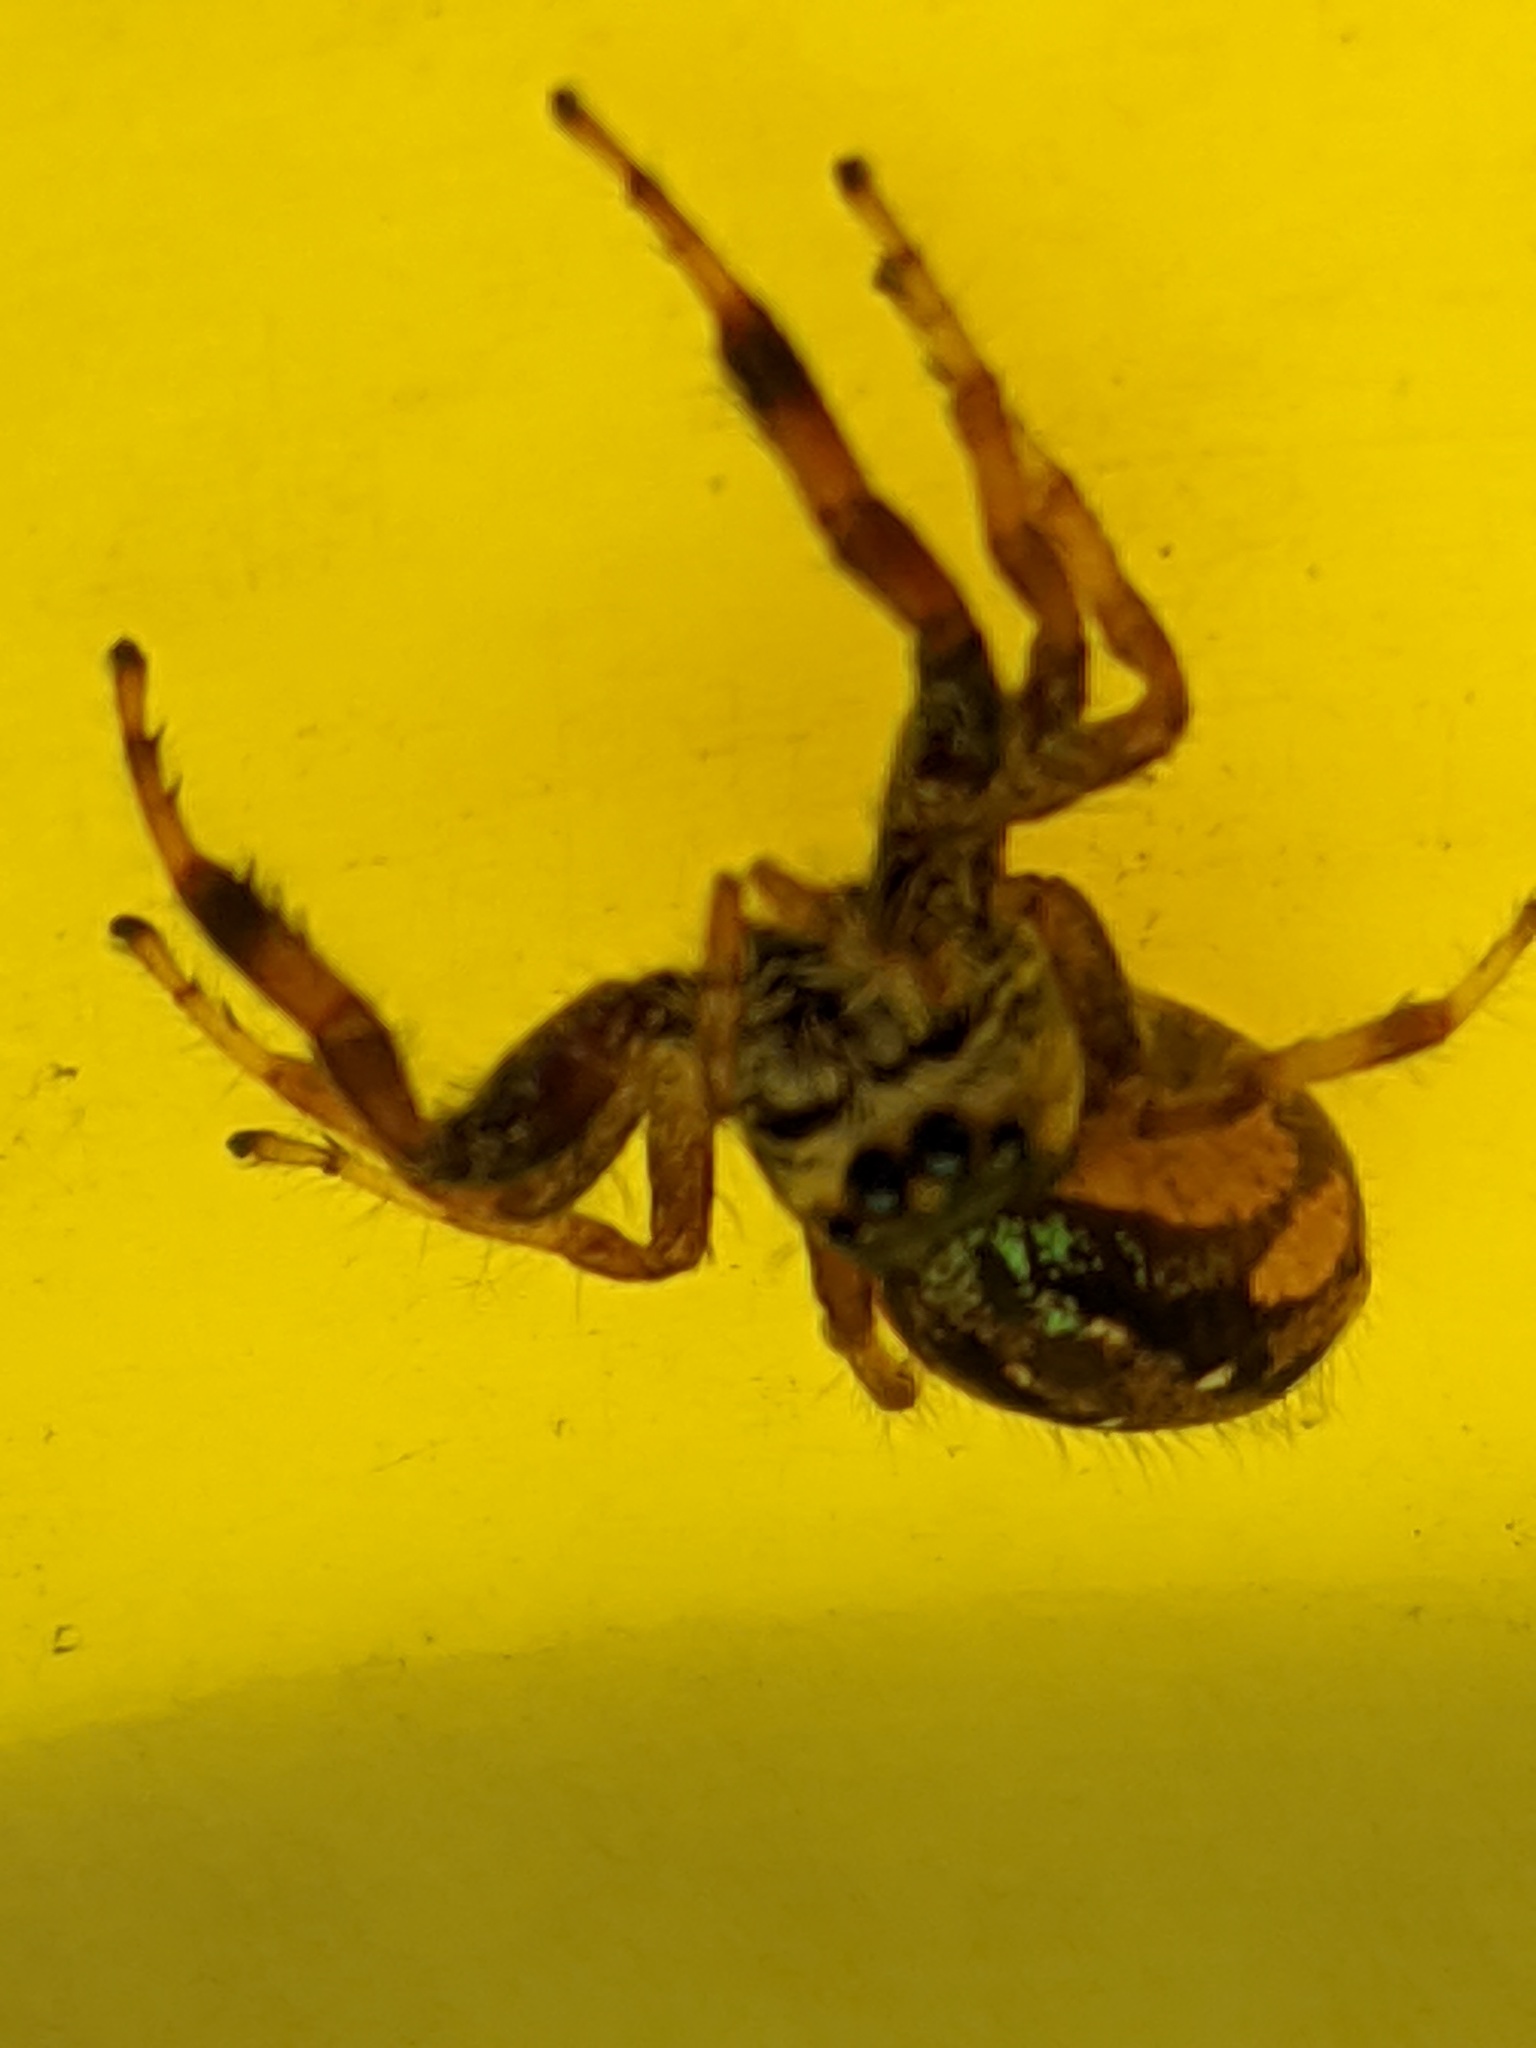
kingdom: Animalia
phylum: Arthropoda
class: Arachnida
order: Araneae
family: Salticidae
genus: Paraphidippus
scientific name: Paraphidippus aurantius
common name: Jumping spiders
